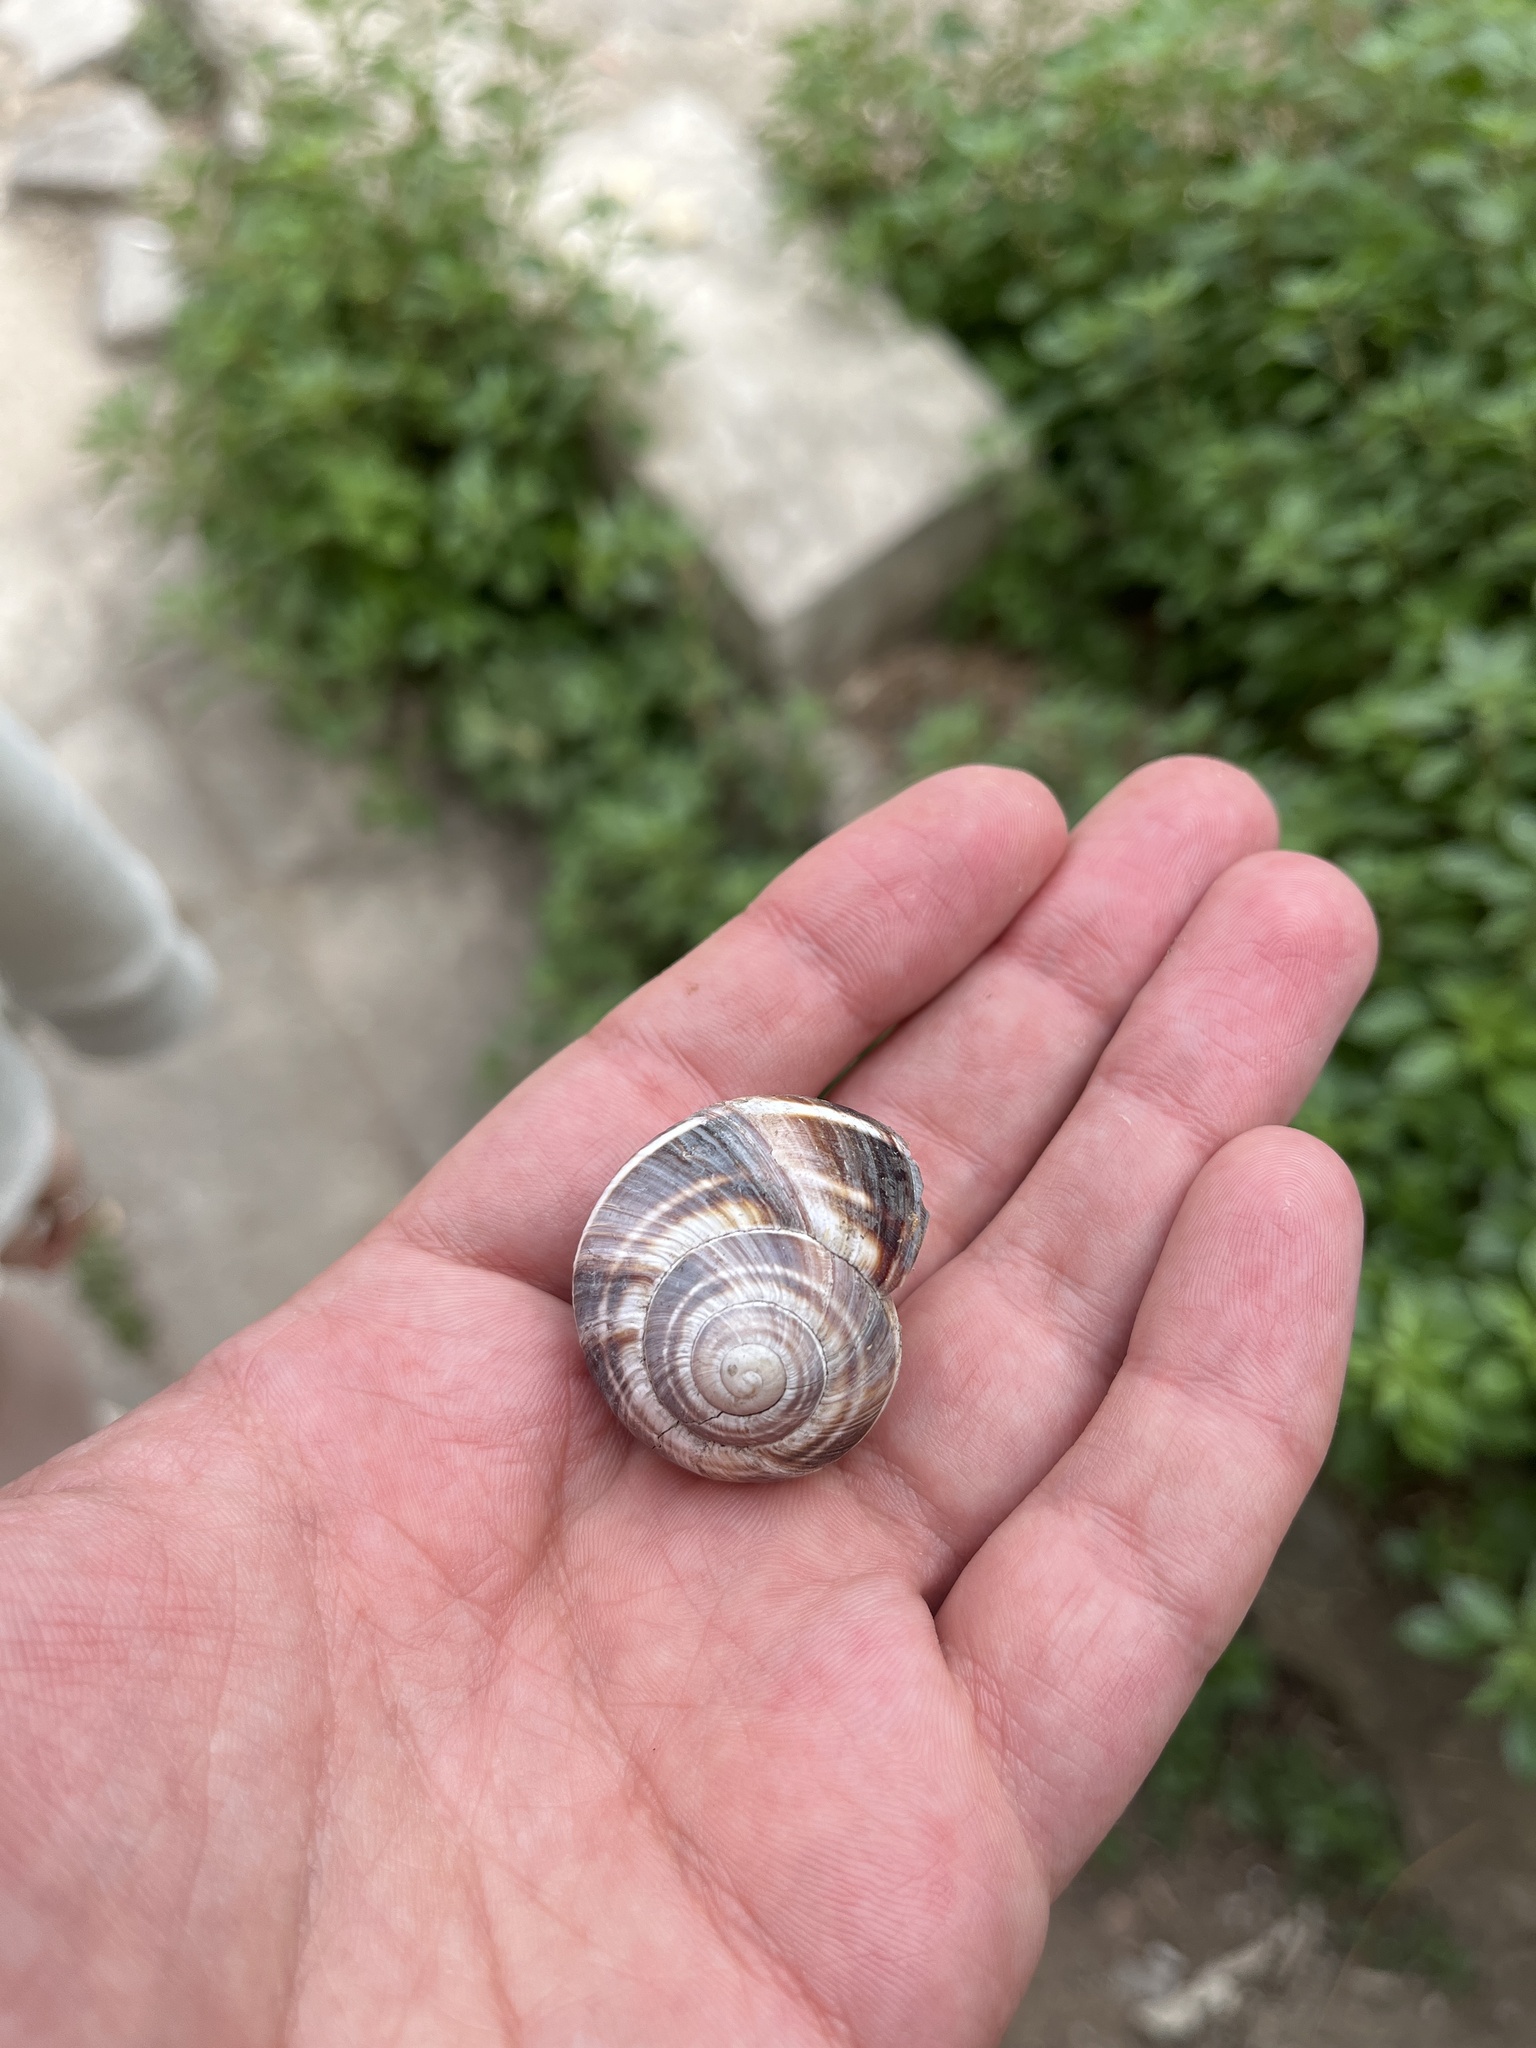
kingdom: Animalia
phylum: Mollusca
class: Gastropoda
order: Stylommatophora
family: Helicidae
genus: Helix
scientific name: Helix lucorum
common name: Turkish snail
